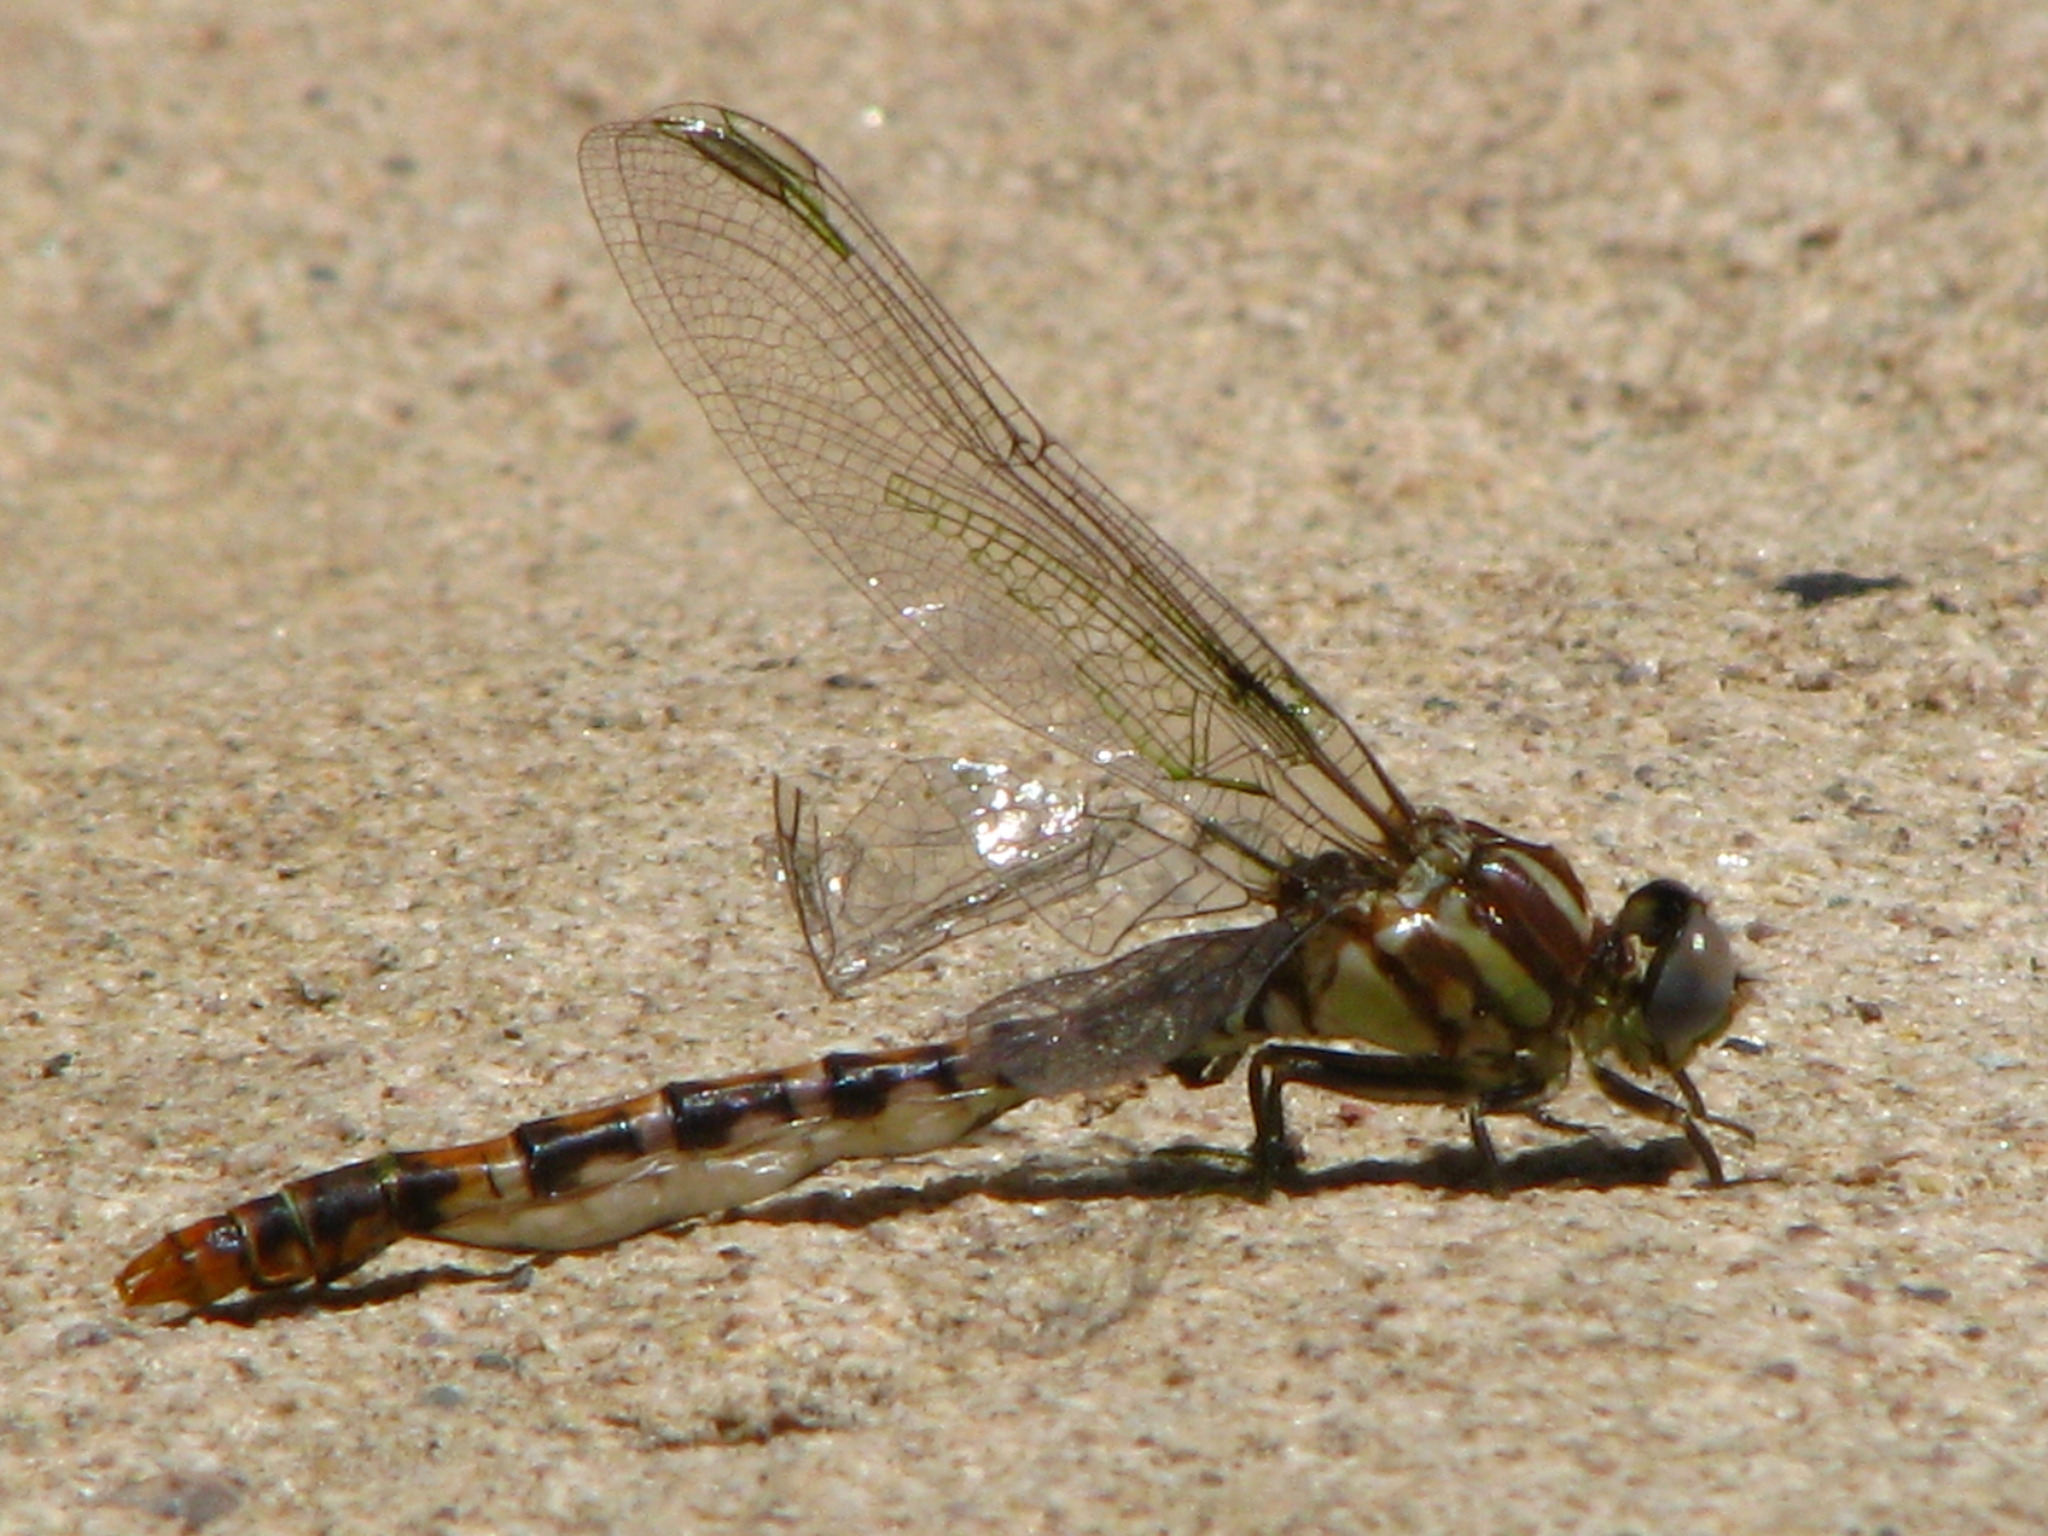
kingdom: Animalia
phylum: Arthropoda
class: Insecta
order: Odonata
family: Gomphidae
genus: Erpetogomphus
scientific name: Erpetogomphus lampropeltis
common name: Serpent ringtail
